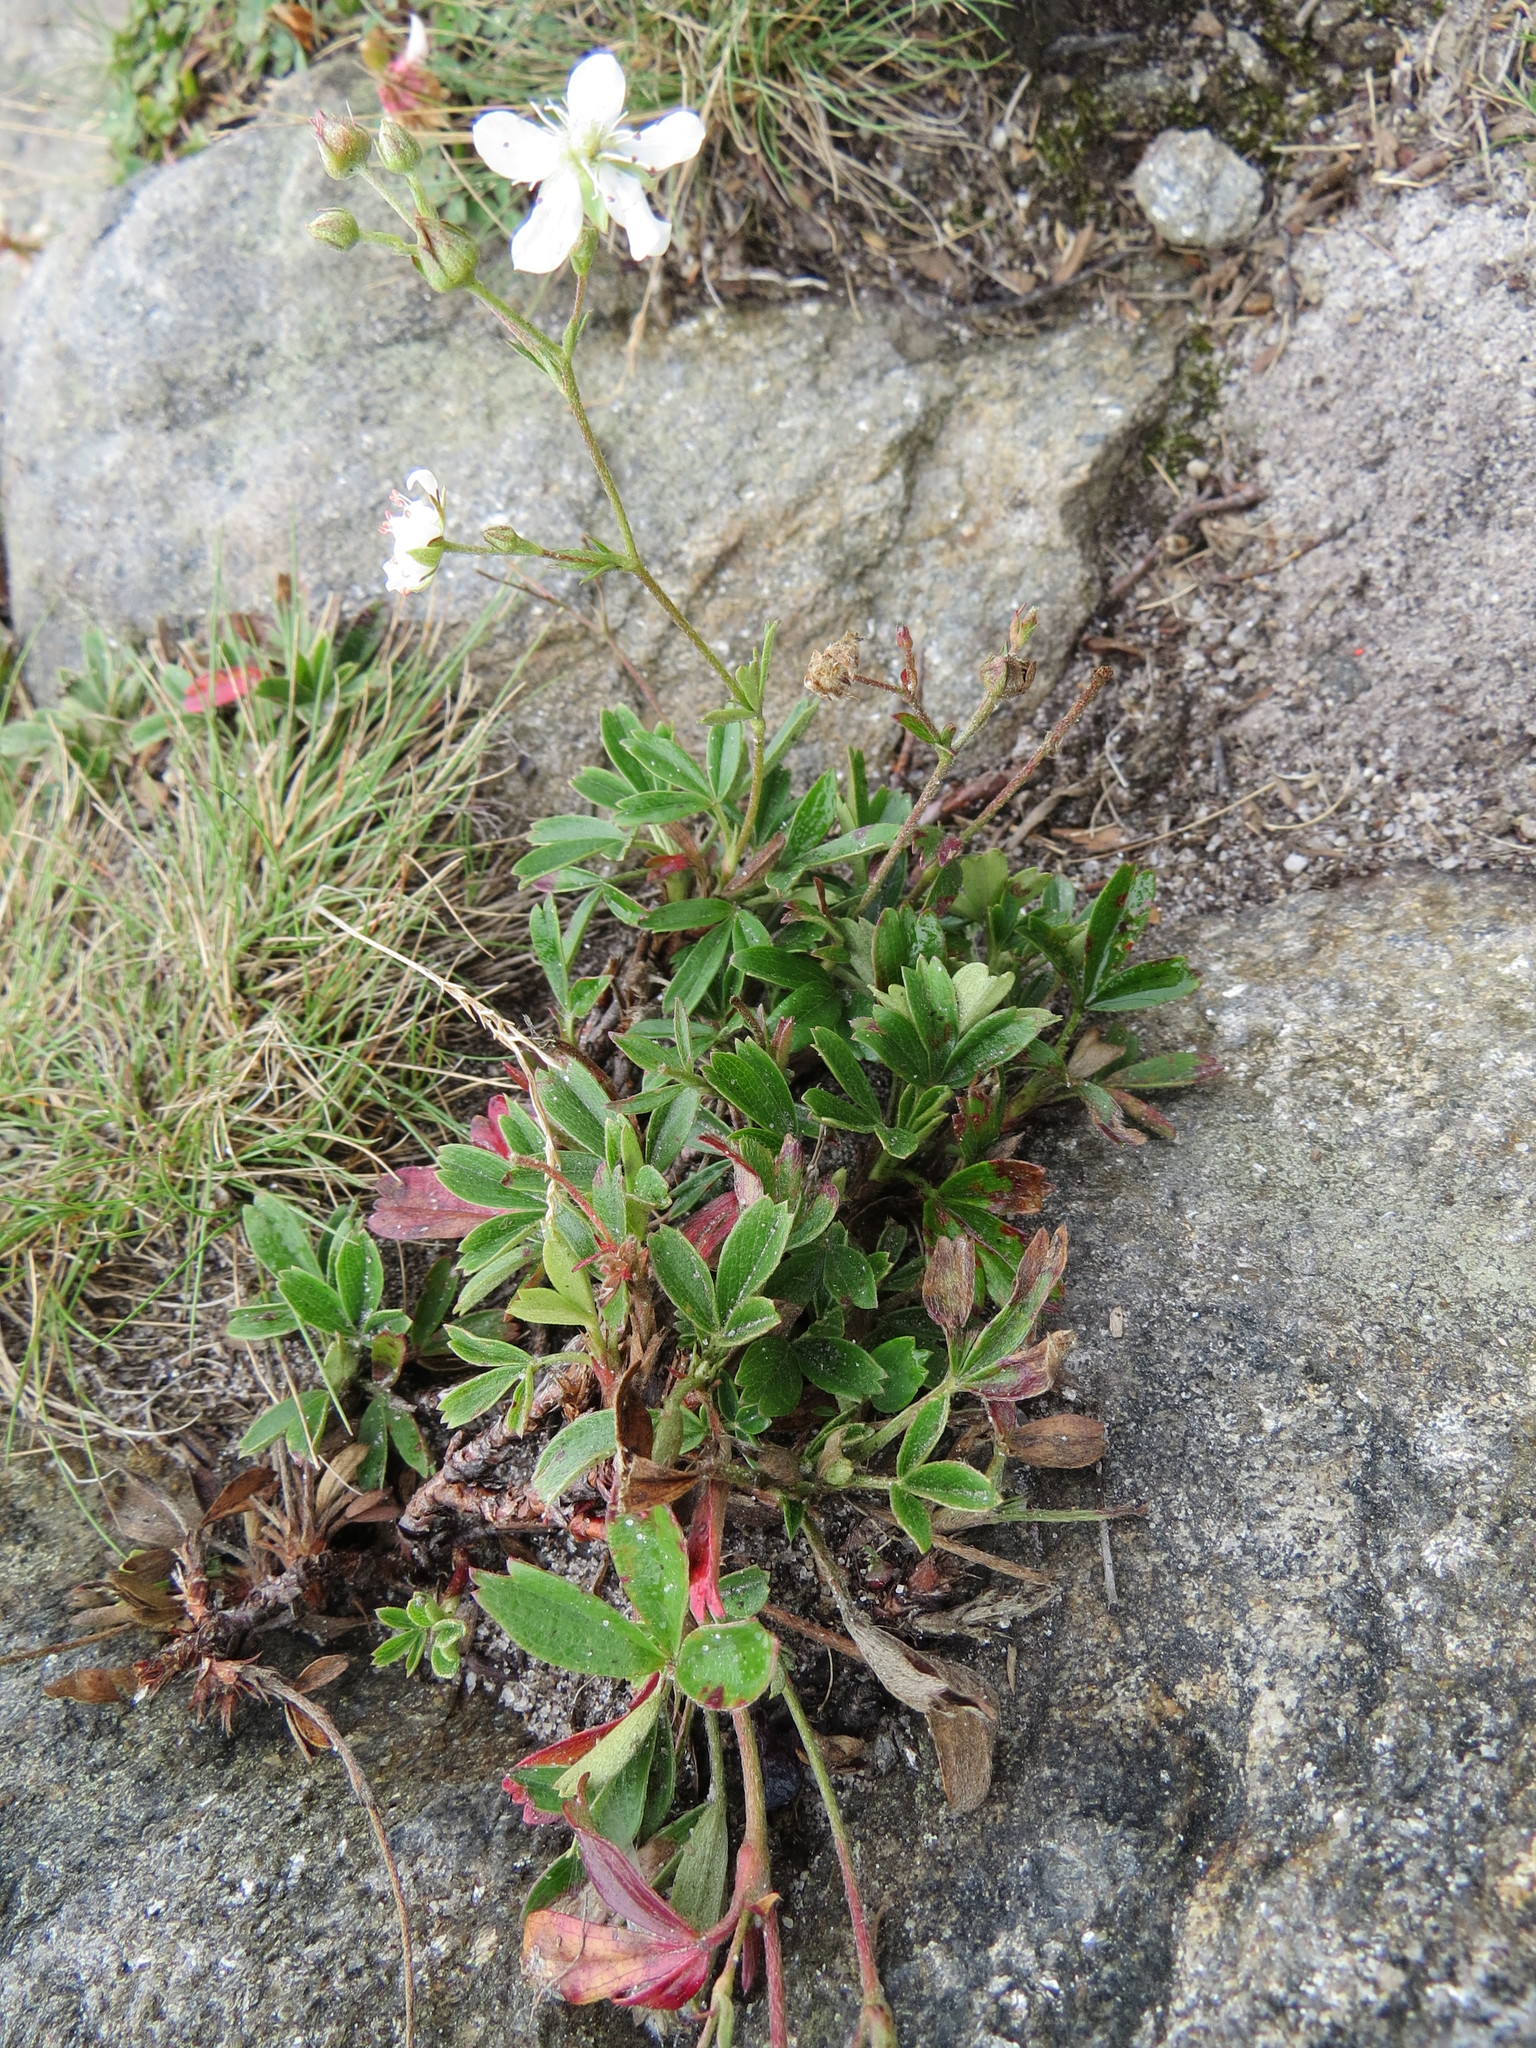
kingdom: Plantae
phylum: Tracheophyta
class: Magnoliopsida
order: Rosales
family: Rosaceae
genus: Sibbaldia
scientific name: Sibbaldia tridentata
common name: Three-toothed cinquefoil
